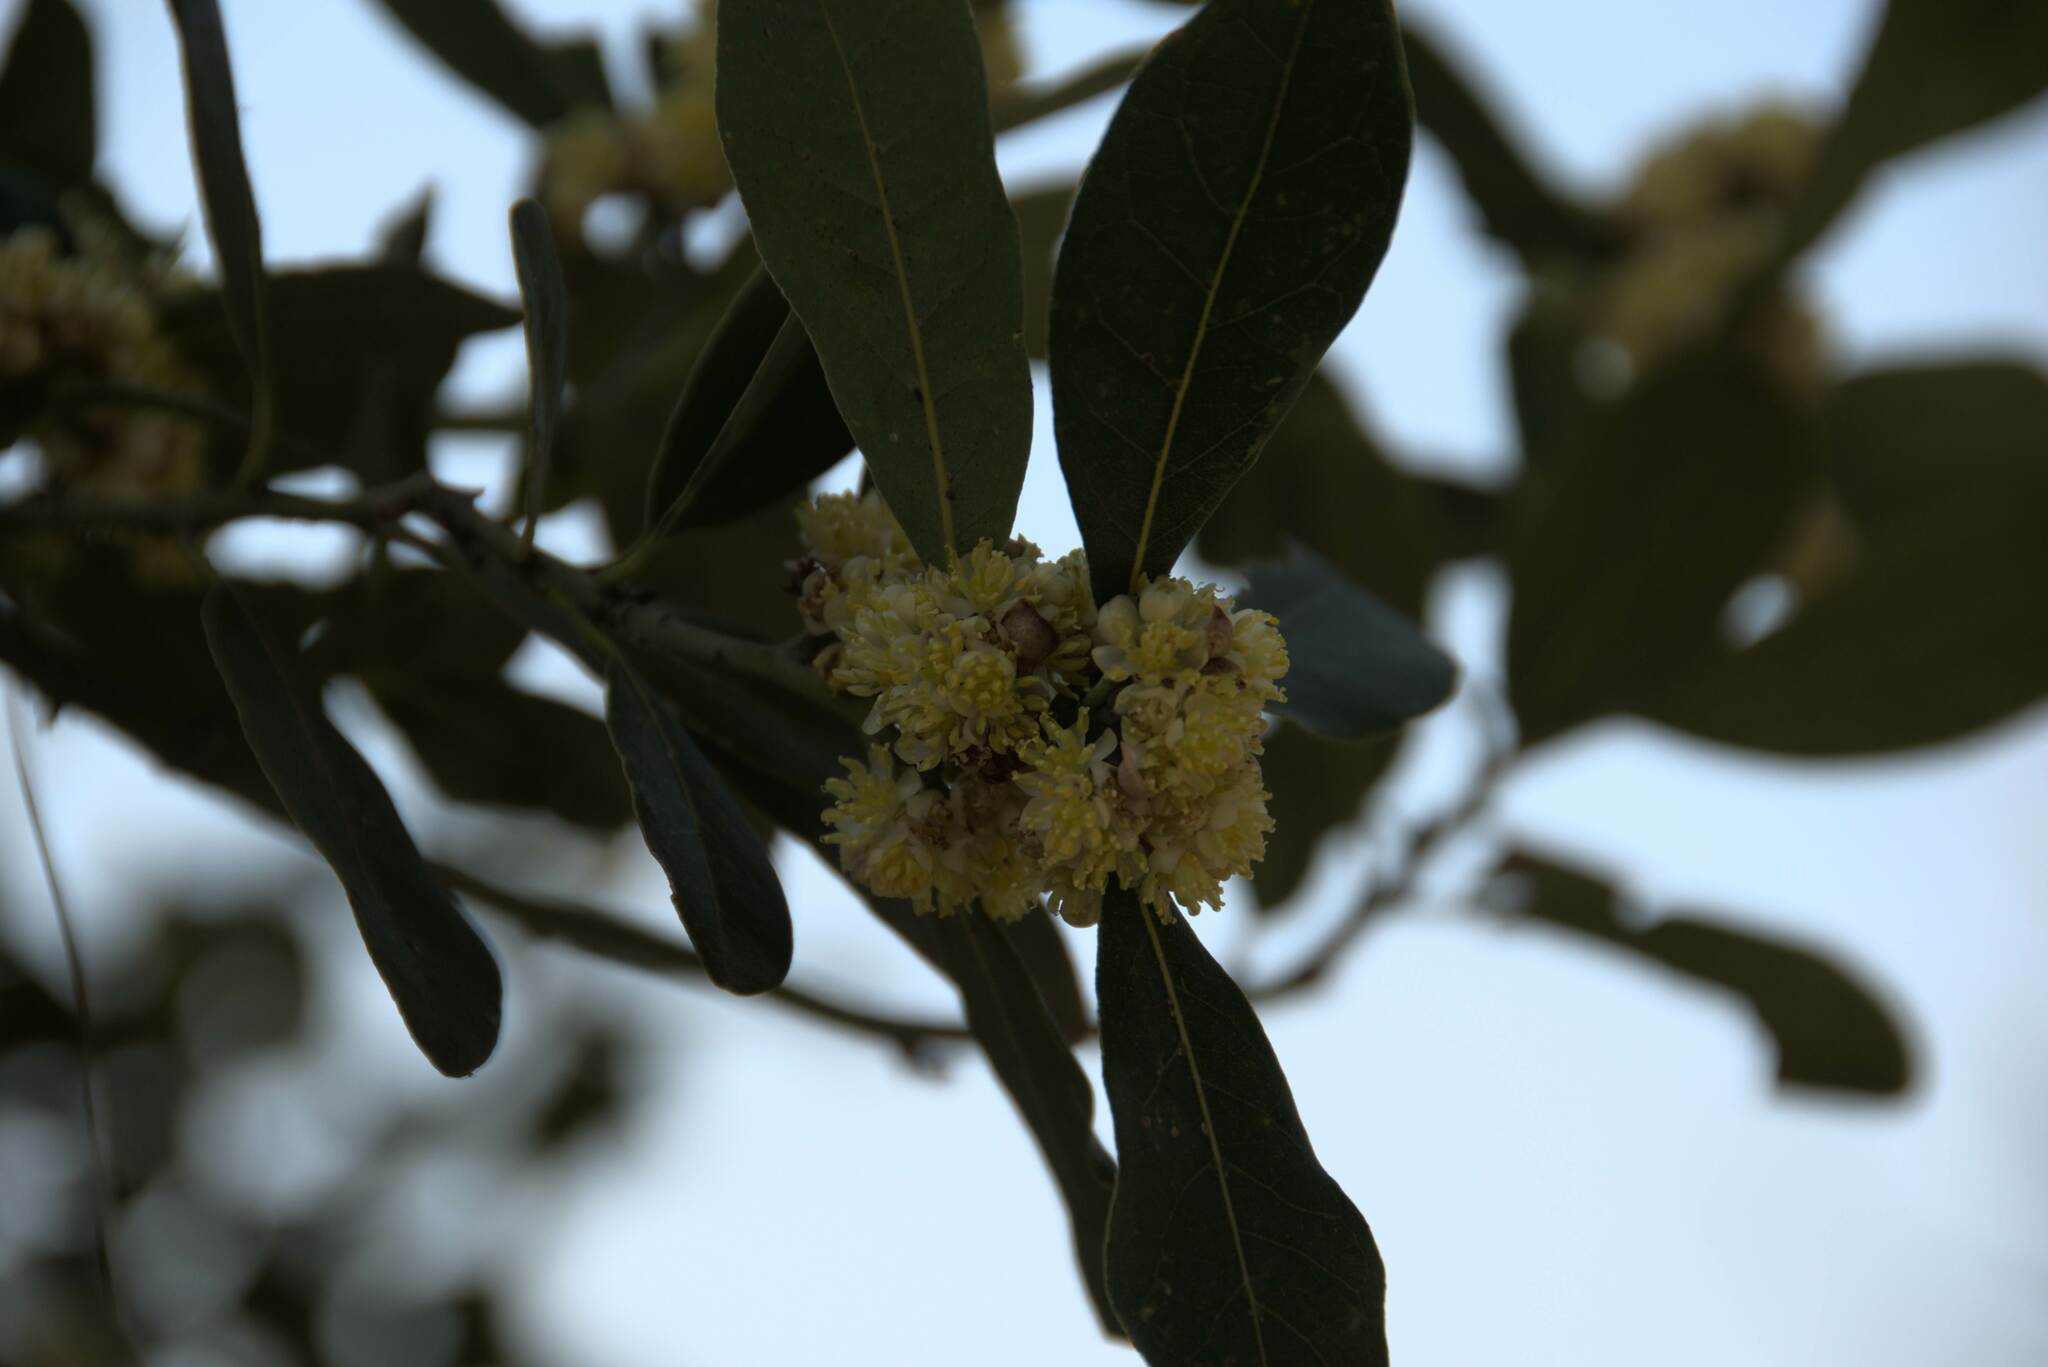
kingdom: Plantae
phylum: Tracheophyta
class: Magnoliopsida
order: Laurales
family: Lauraceae
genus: Laurus
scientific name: Laurus nobilis
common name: Bay
